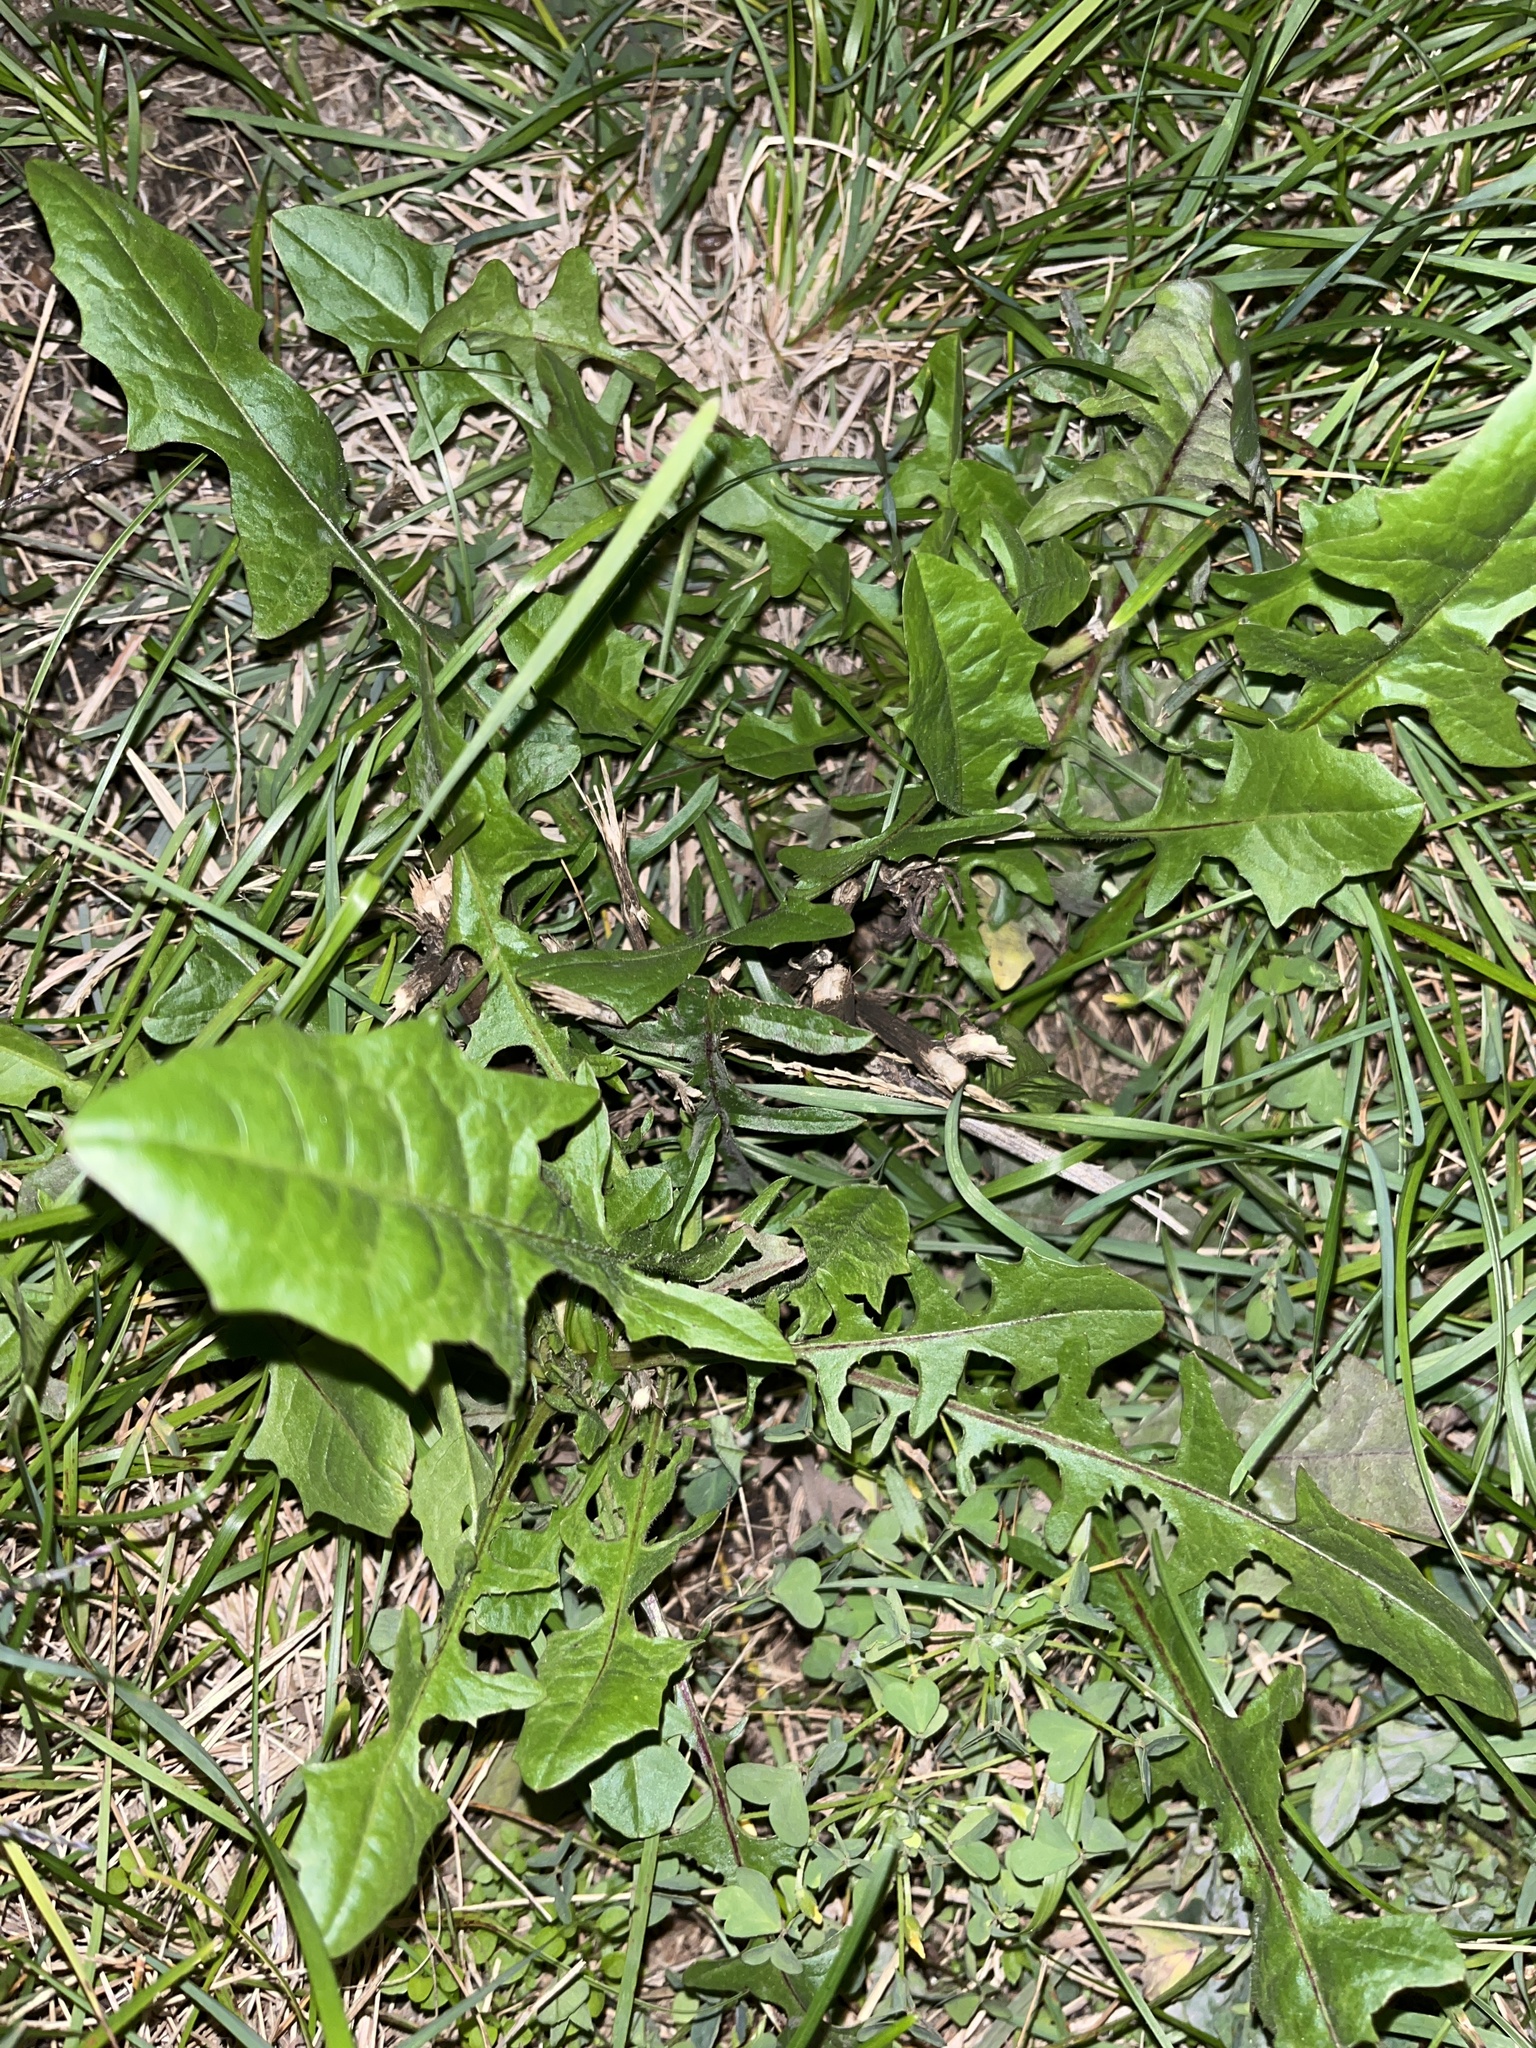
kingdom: Plantae
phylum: Tracheophyta
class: Magnoliopsida
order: Asterales
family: Asteraceae
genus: Taraxacum
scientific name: Taraxacum officinale
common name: Common dandelion
